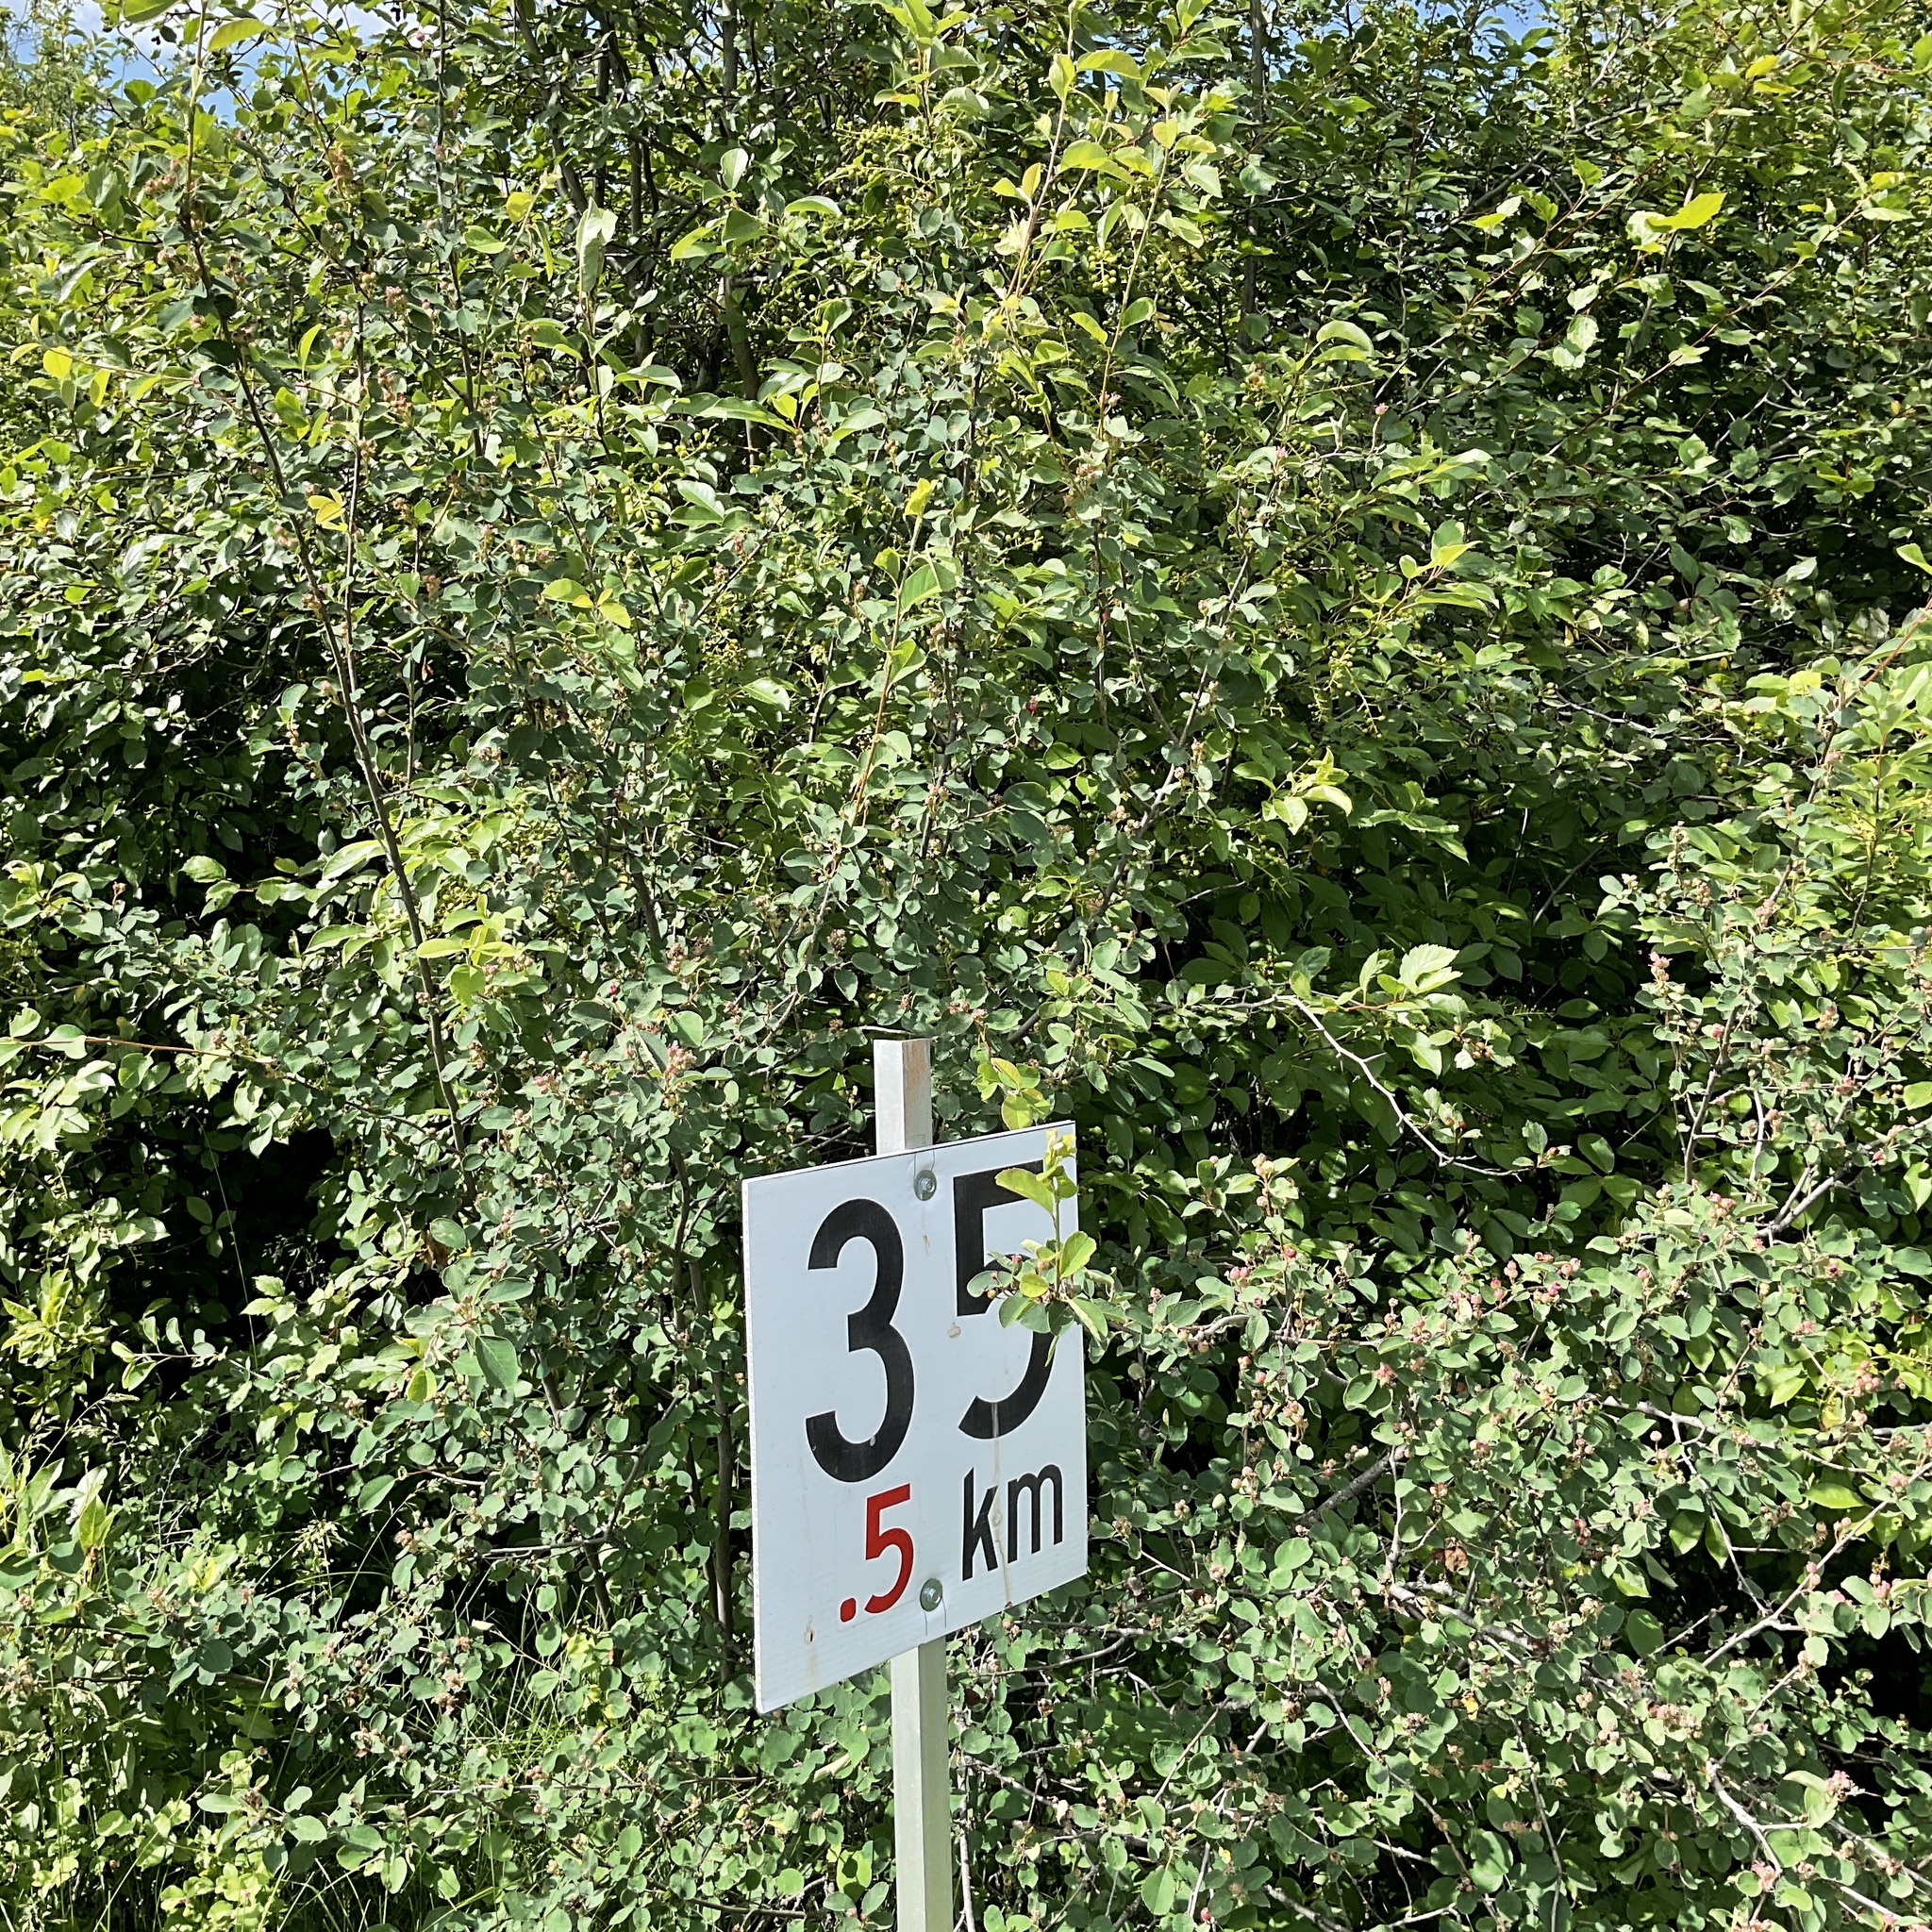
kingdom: Plantae
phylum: Tracheophyta
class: Magnoliopsida
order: Rosales
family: Rosaceae
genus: Amelanchier
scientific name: Amelanchier alnifolia
